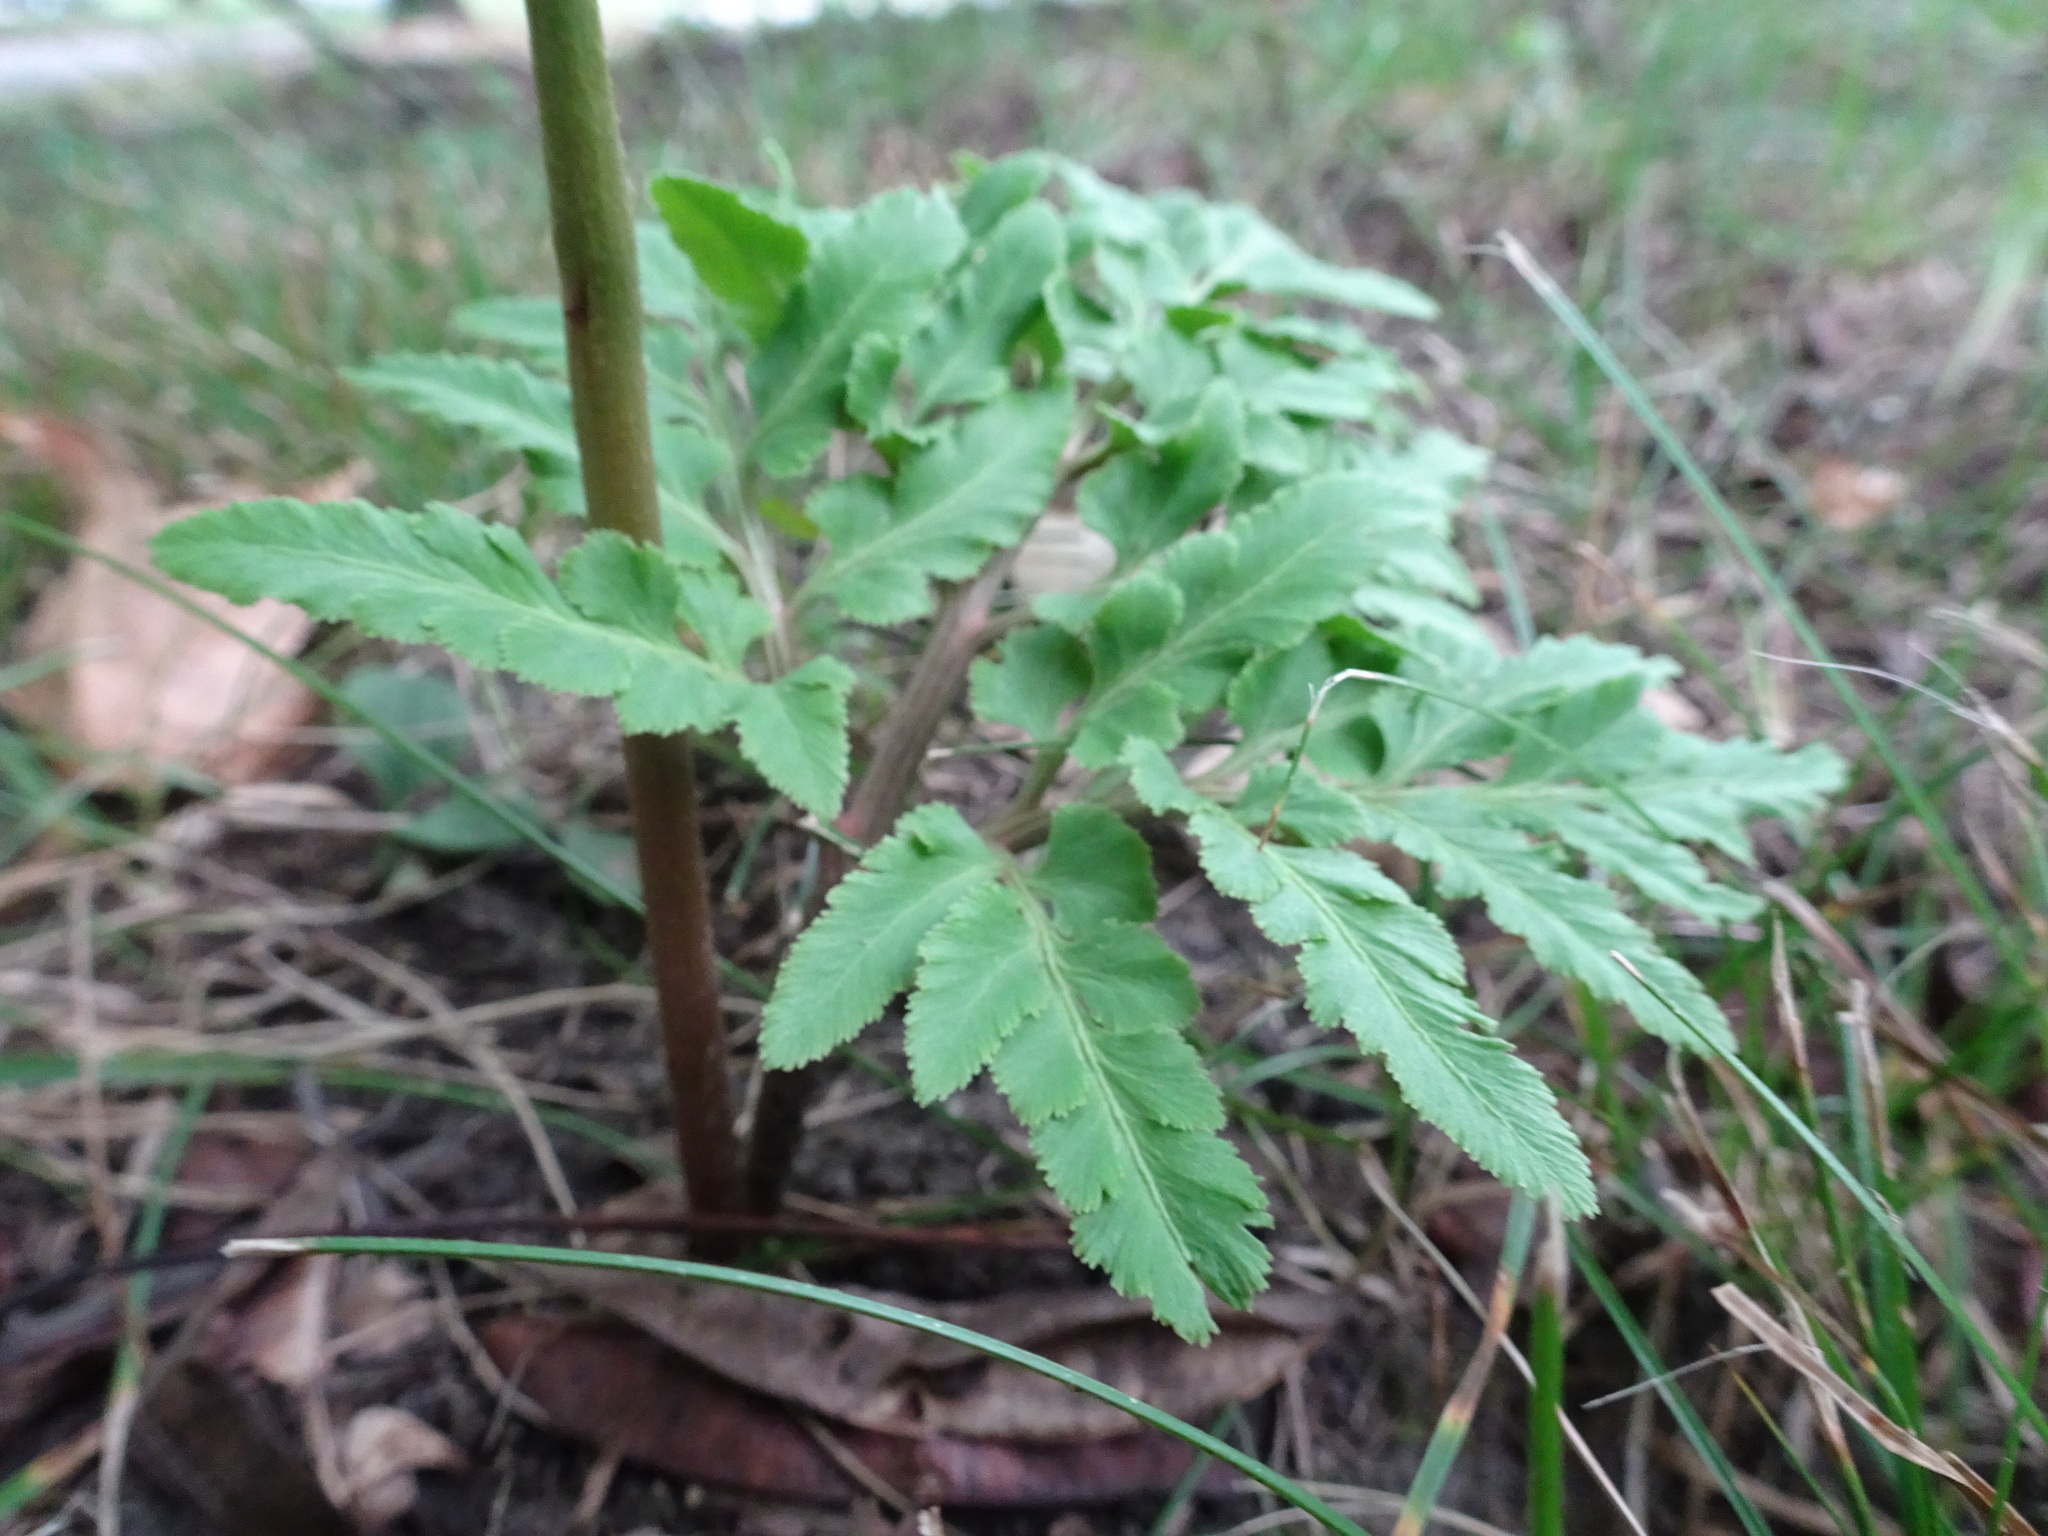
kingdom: Plantae
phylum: Tracheophyta
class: Polypodiopsida
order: Ophioglossales
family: Ophioglossaceae
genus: Sceptridium
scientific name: Sceptridium dissectum
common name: Cut-leaved grapefern
